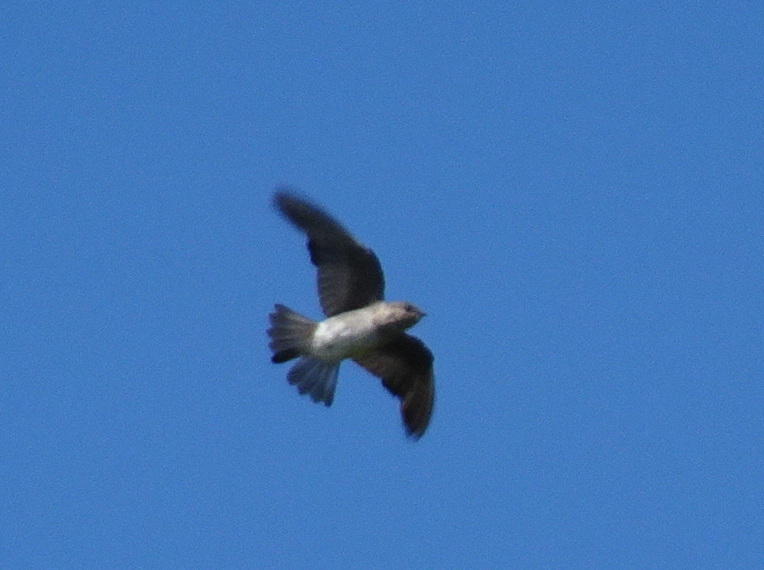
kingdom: Animalia
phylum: Chordata
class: Aves
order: Passeriformes
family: Hirundinidae
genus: Stelgidopteryx
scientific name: Stelgidopteryx serripennis
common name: Northern rough-winged swallow
